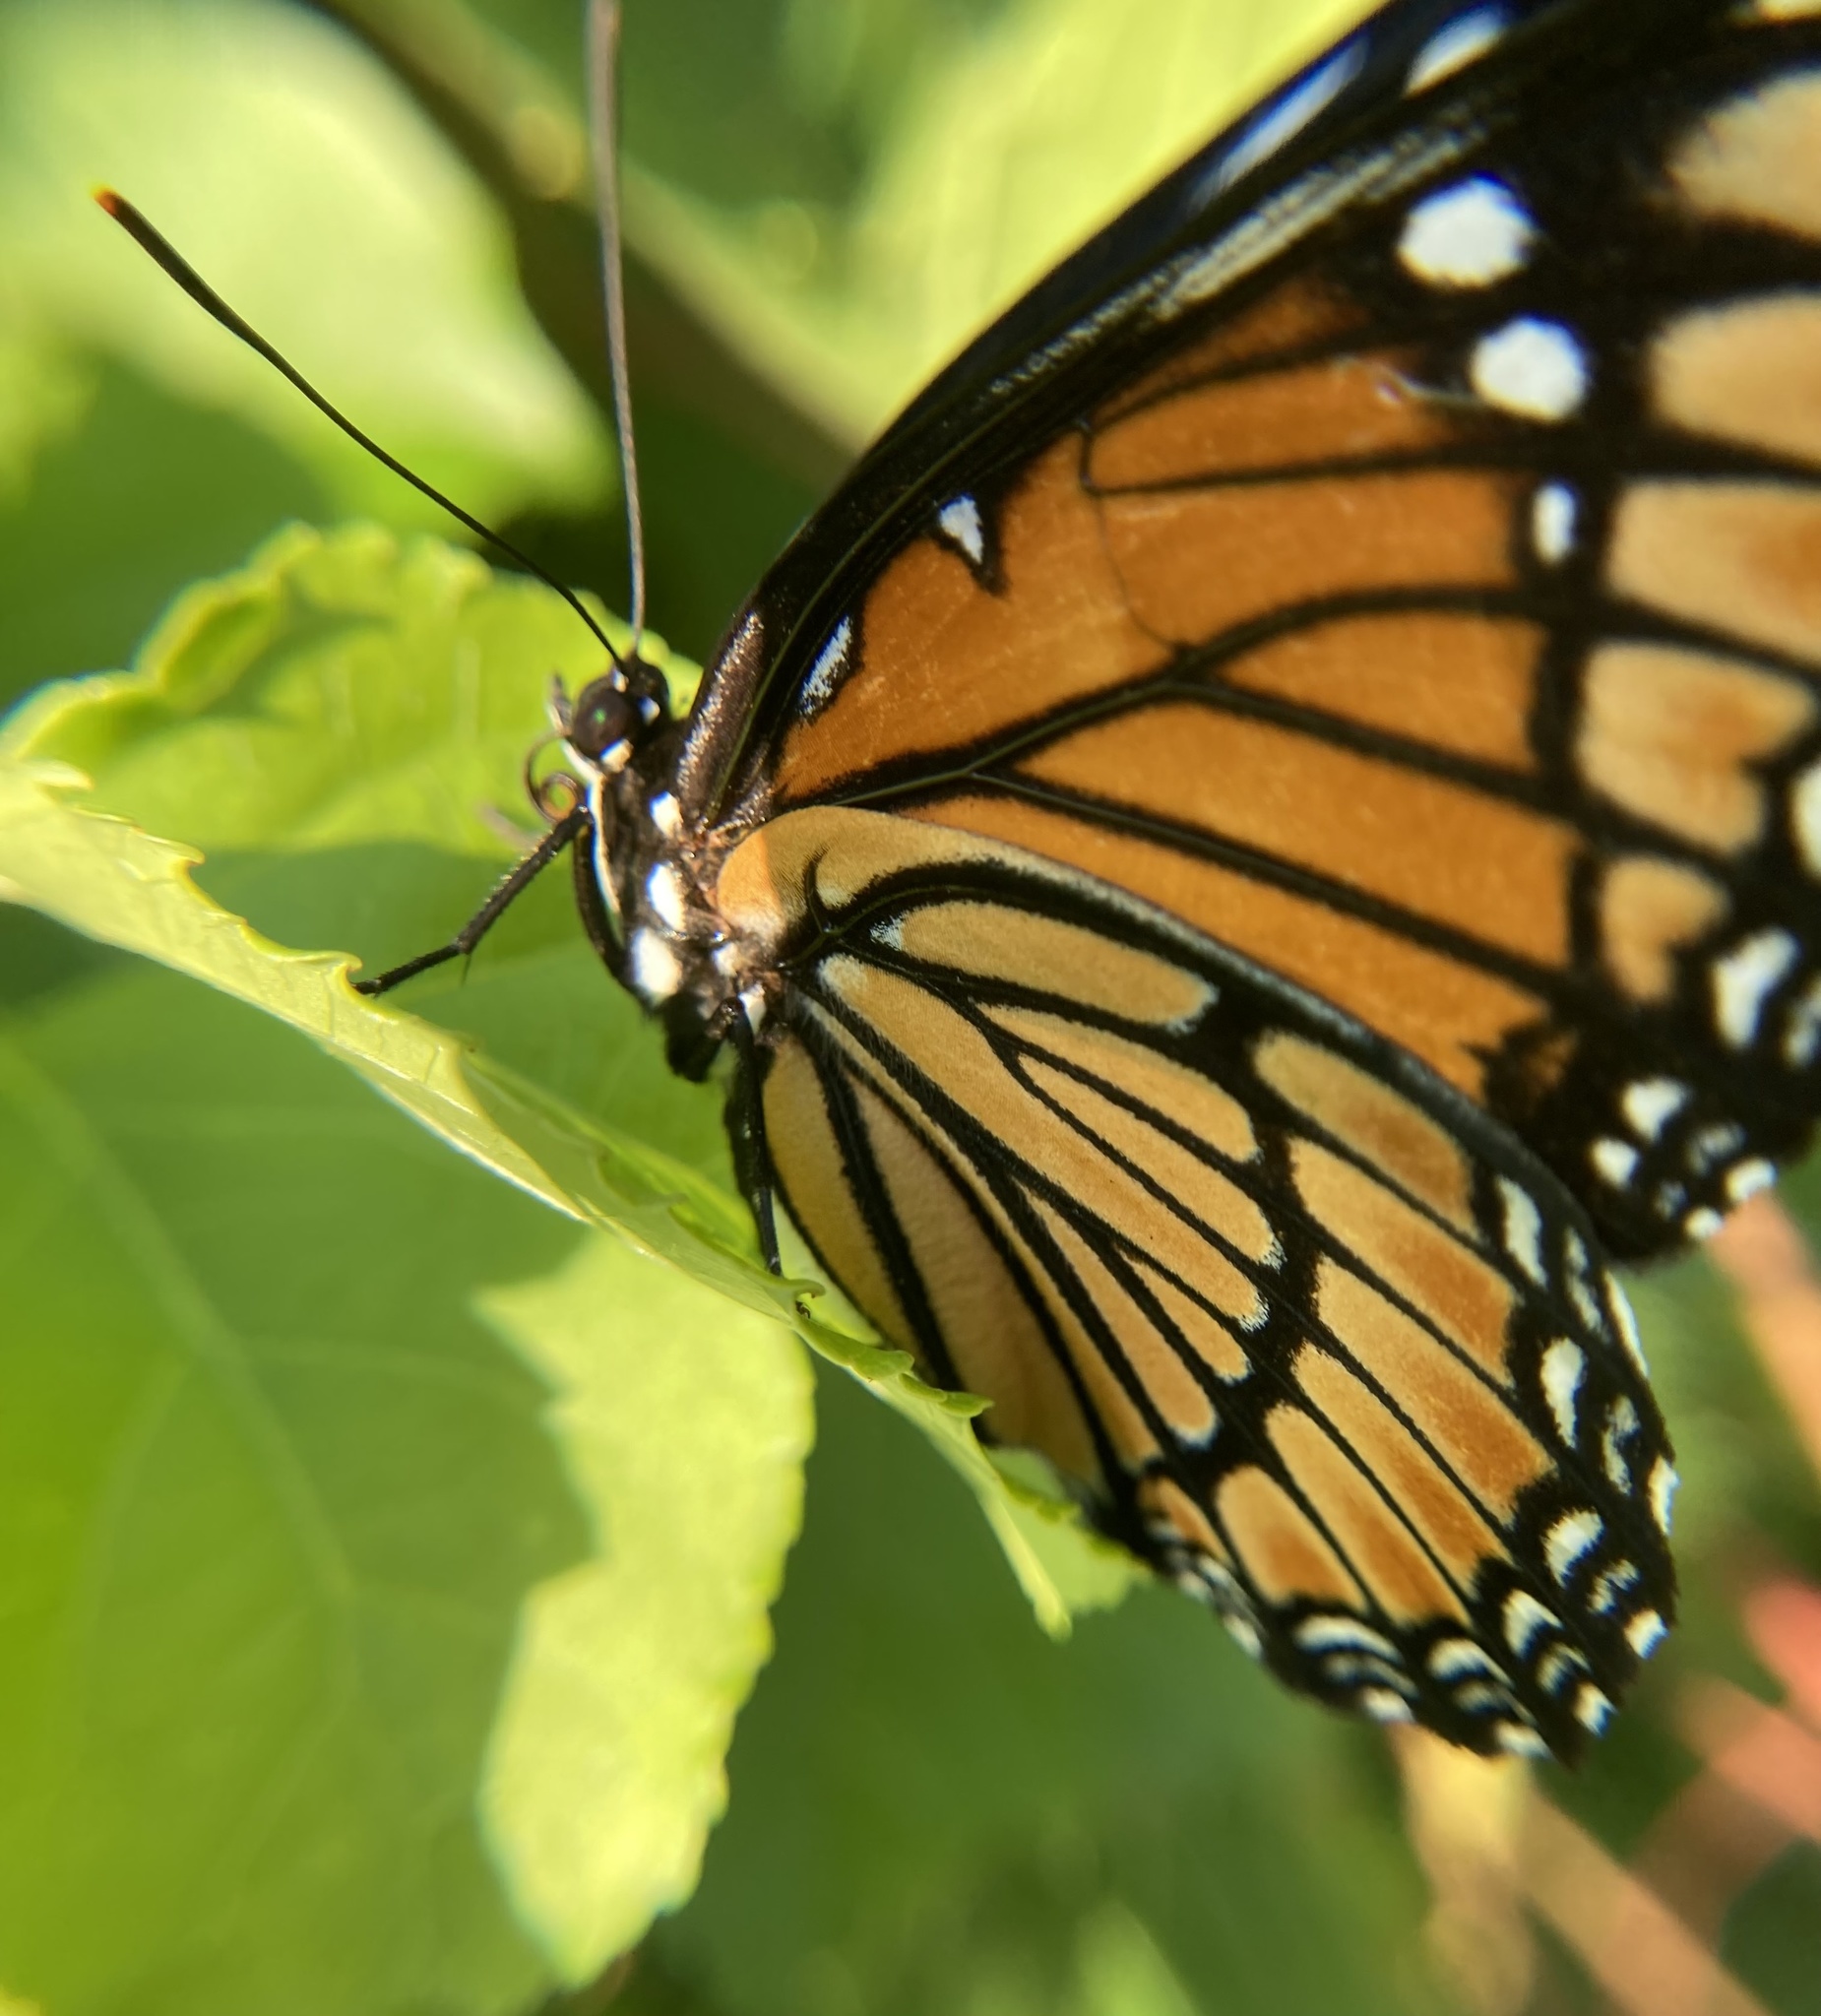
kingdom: Animalia
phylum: Arthropoda
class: Insecta
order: Lepidoptera
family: Nymphalidae
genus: Limenitis
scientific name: Limenitis archippus
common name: Viceroy
